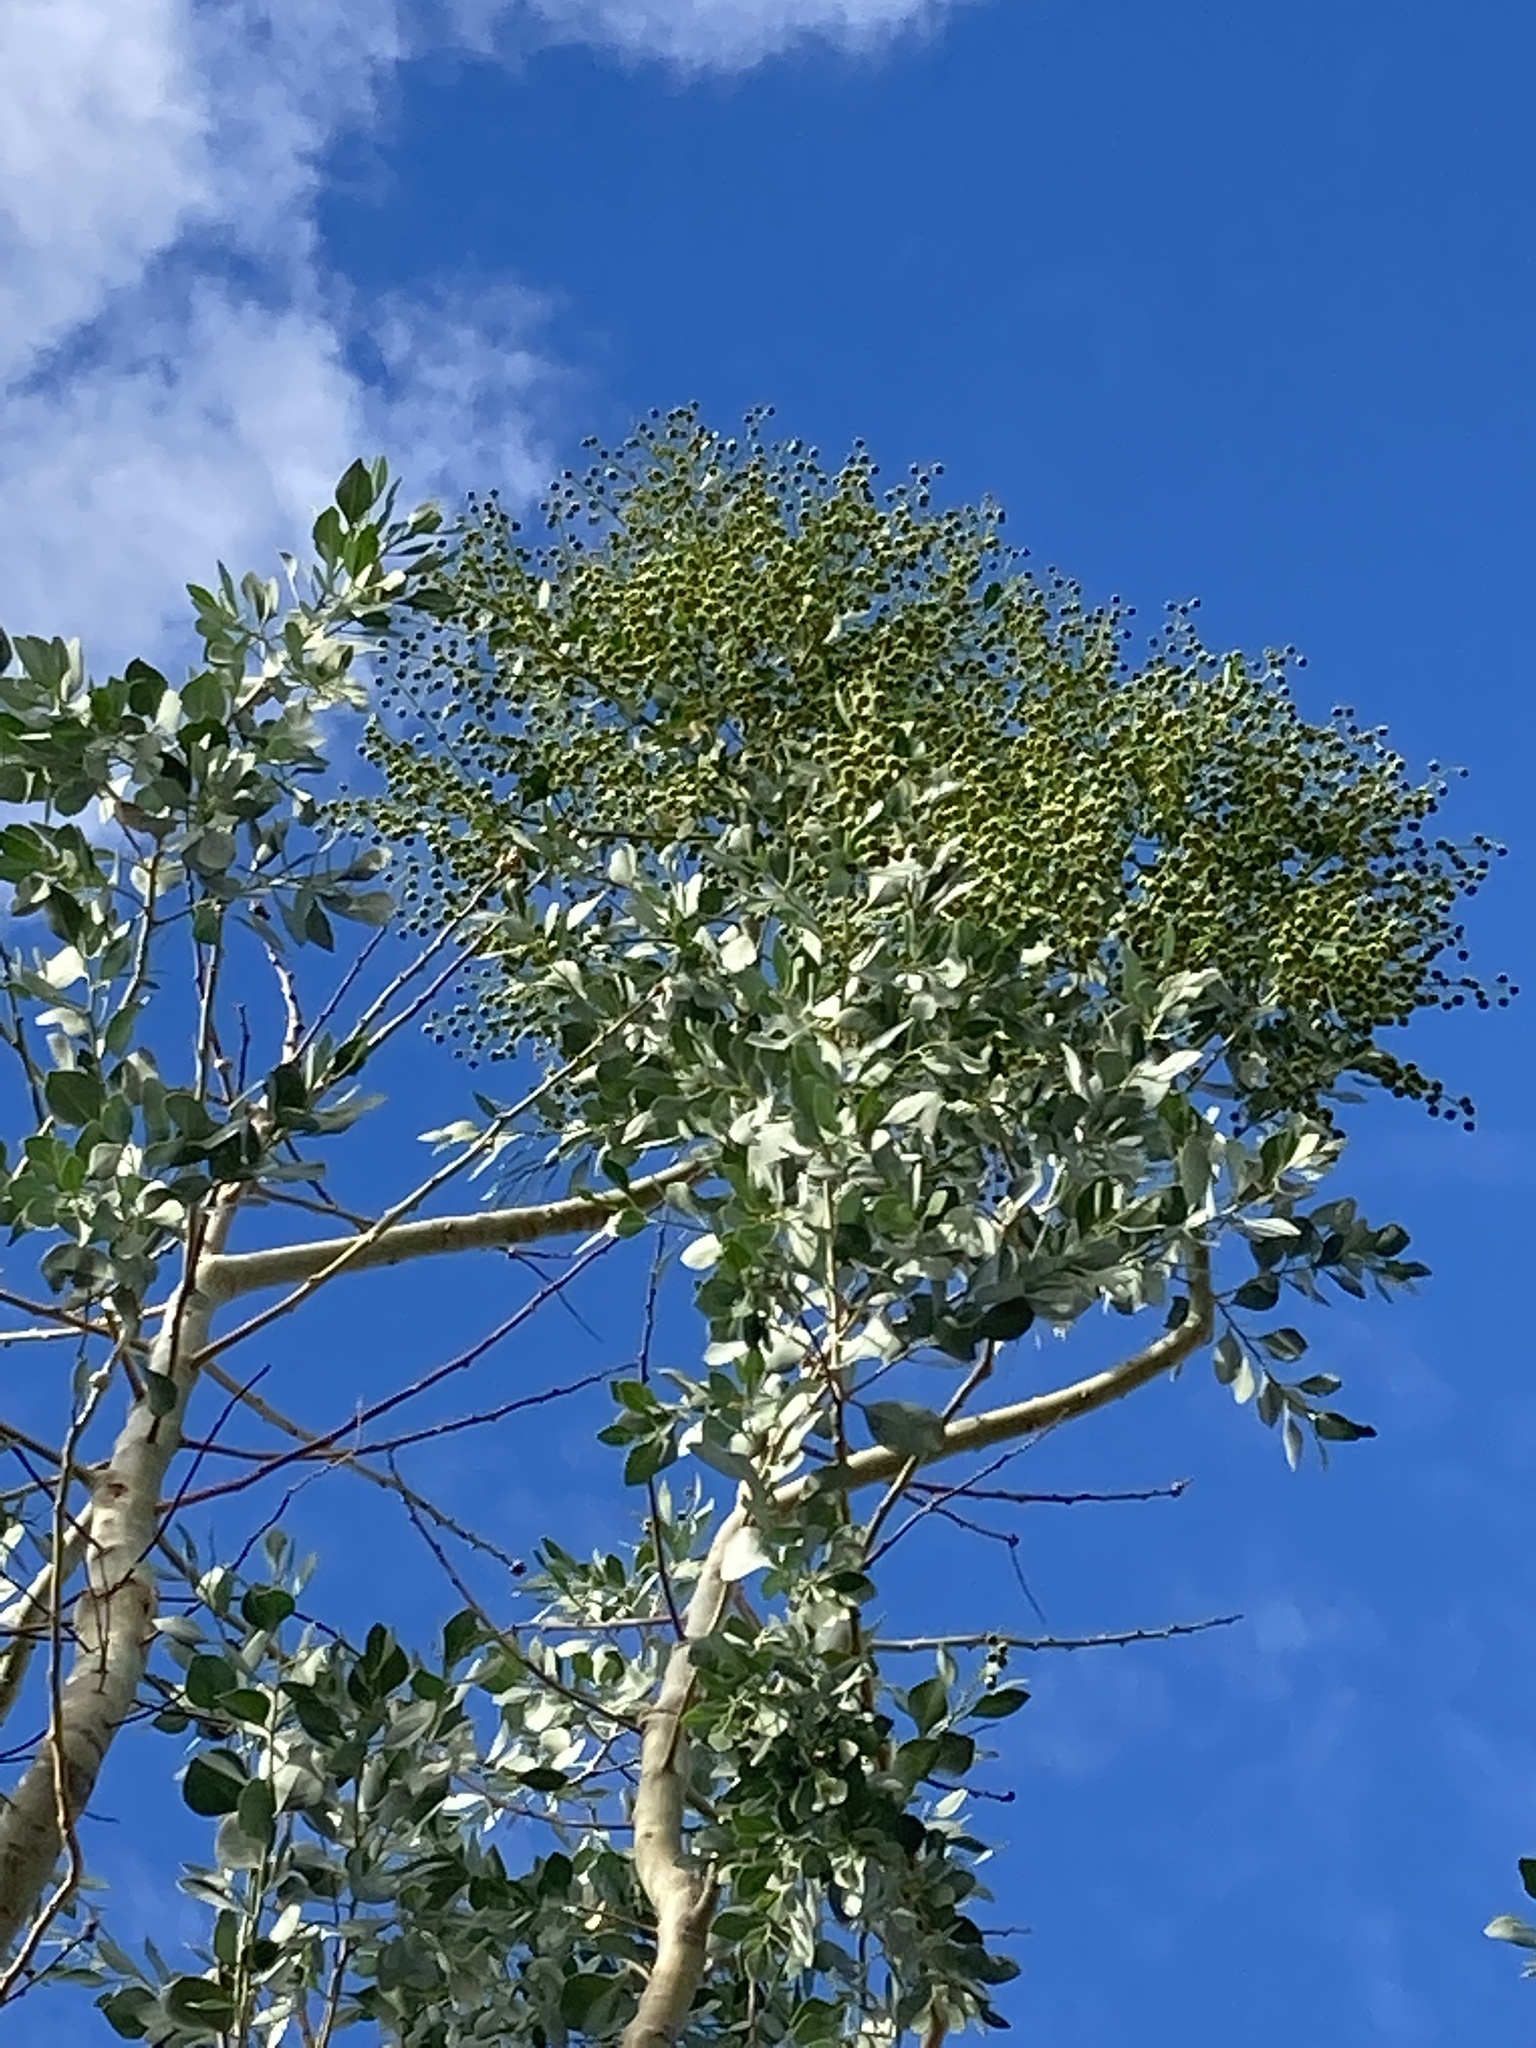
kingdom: Plantae
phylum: Tracheophyta
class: Magnoliopsida
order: Brassicales
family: Gyrostemonaceae
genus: Codonocarpus
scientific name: Codonocarpus cotinifolius
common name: Mustardtree
